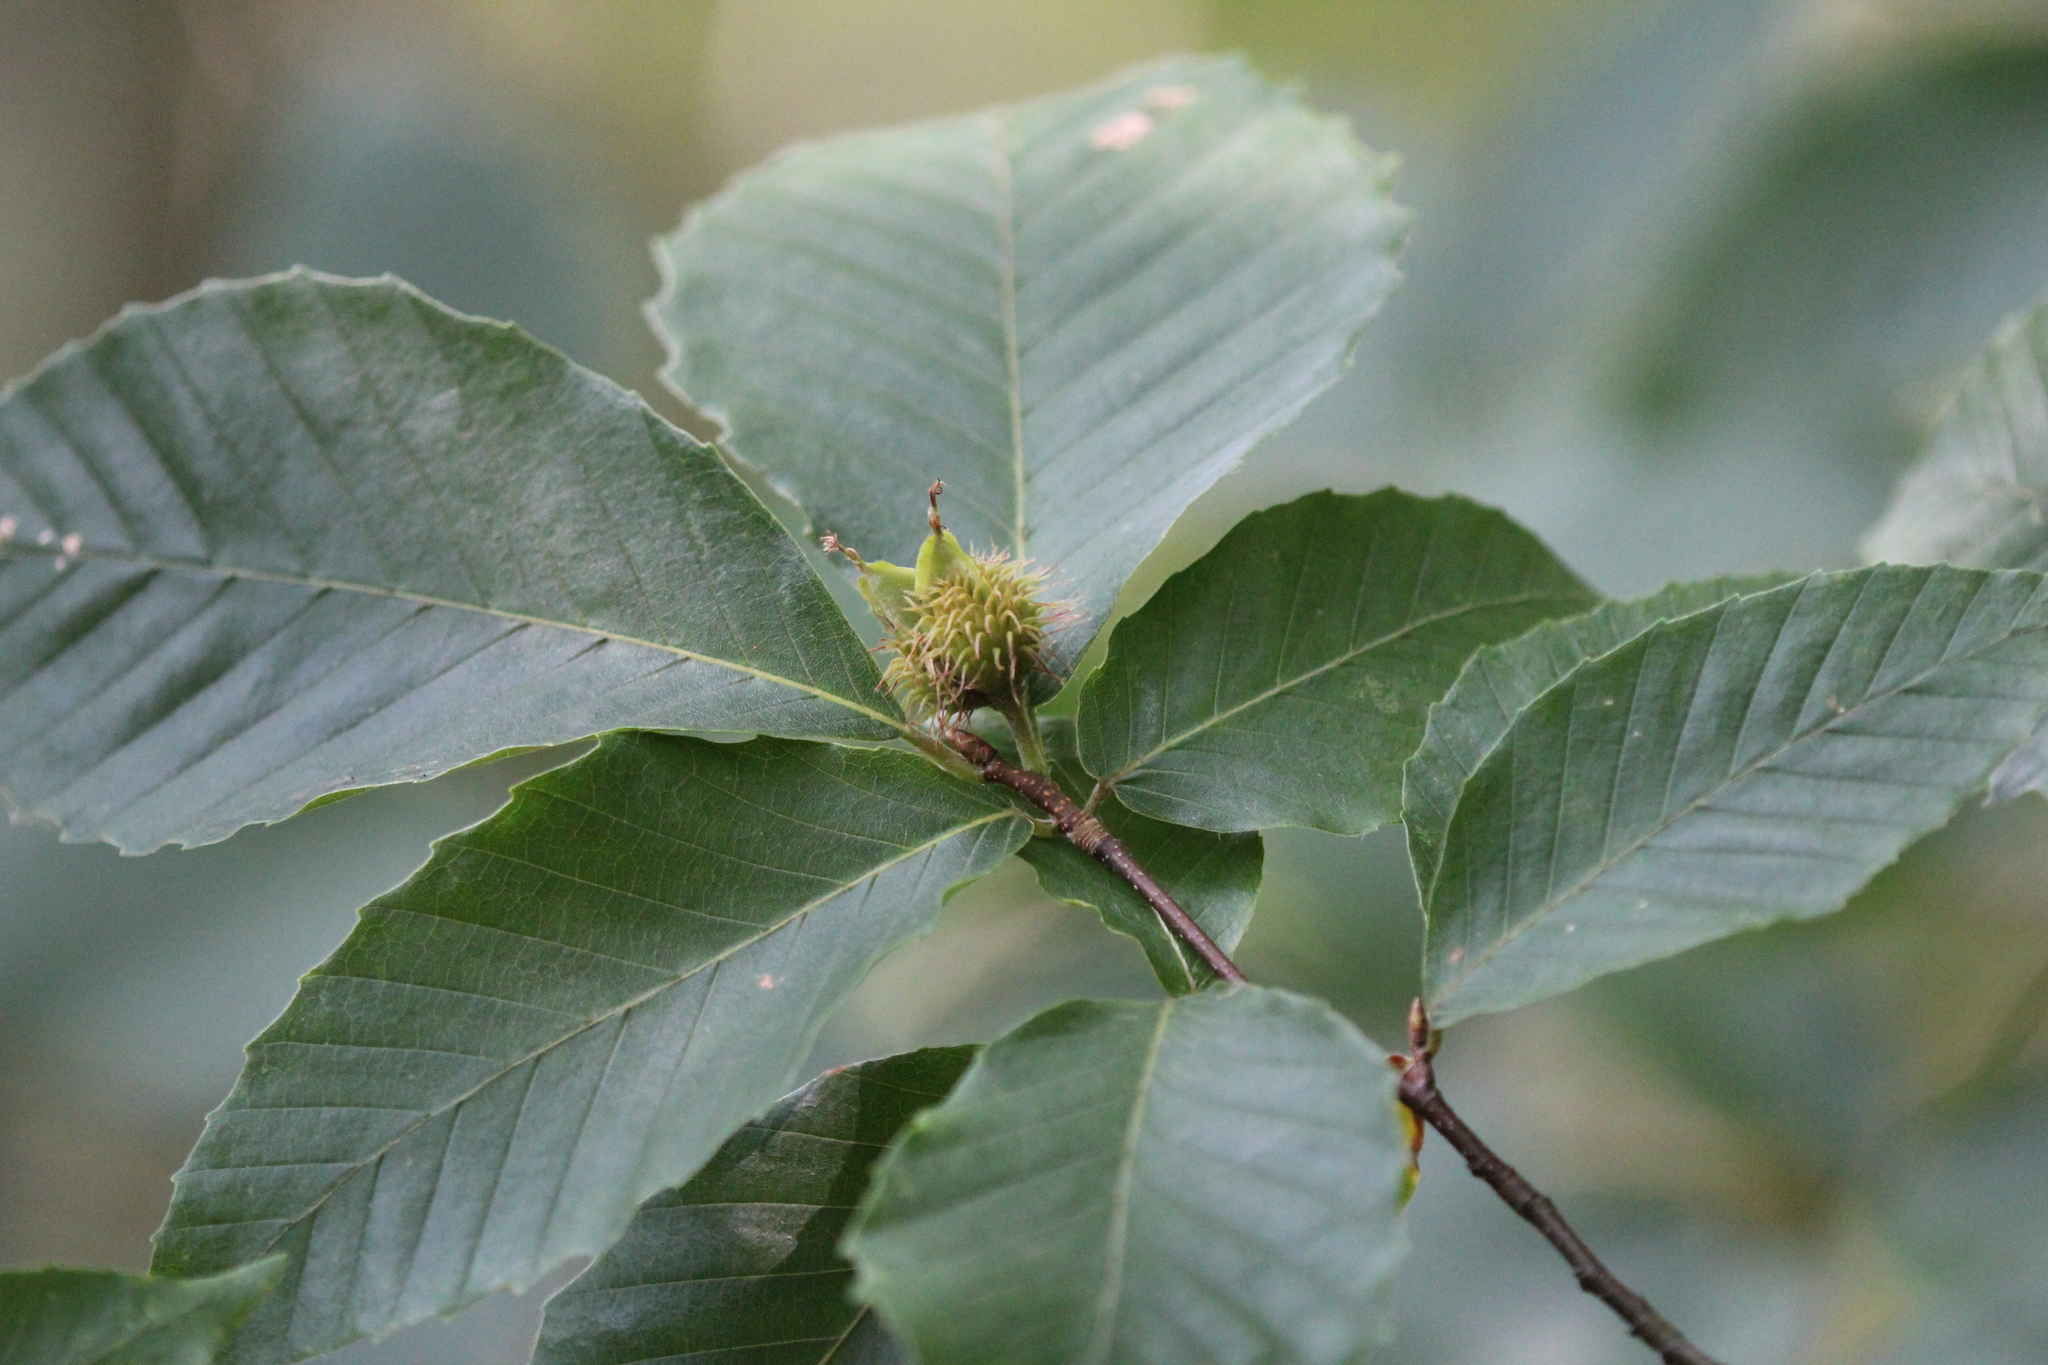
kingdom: Plantae
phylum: Tracheophyta
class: Magnoliopsida
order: Fagales
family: Fagaceae
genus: Fagus
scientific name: Fagus grandifolia
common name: American beech
